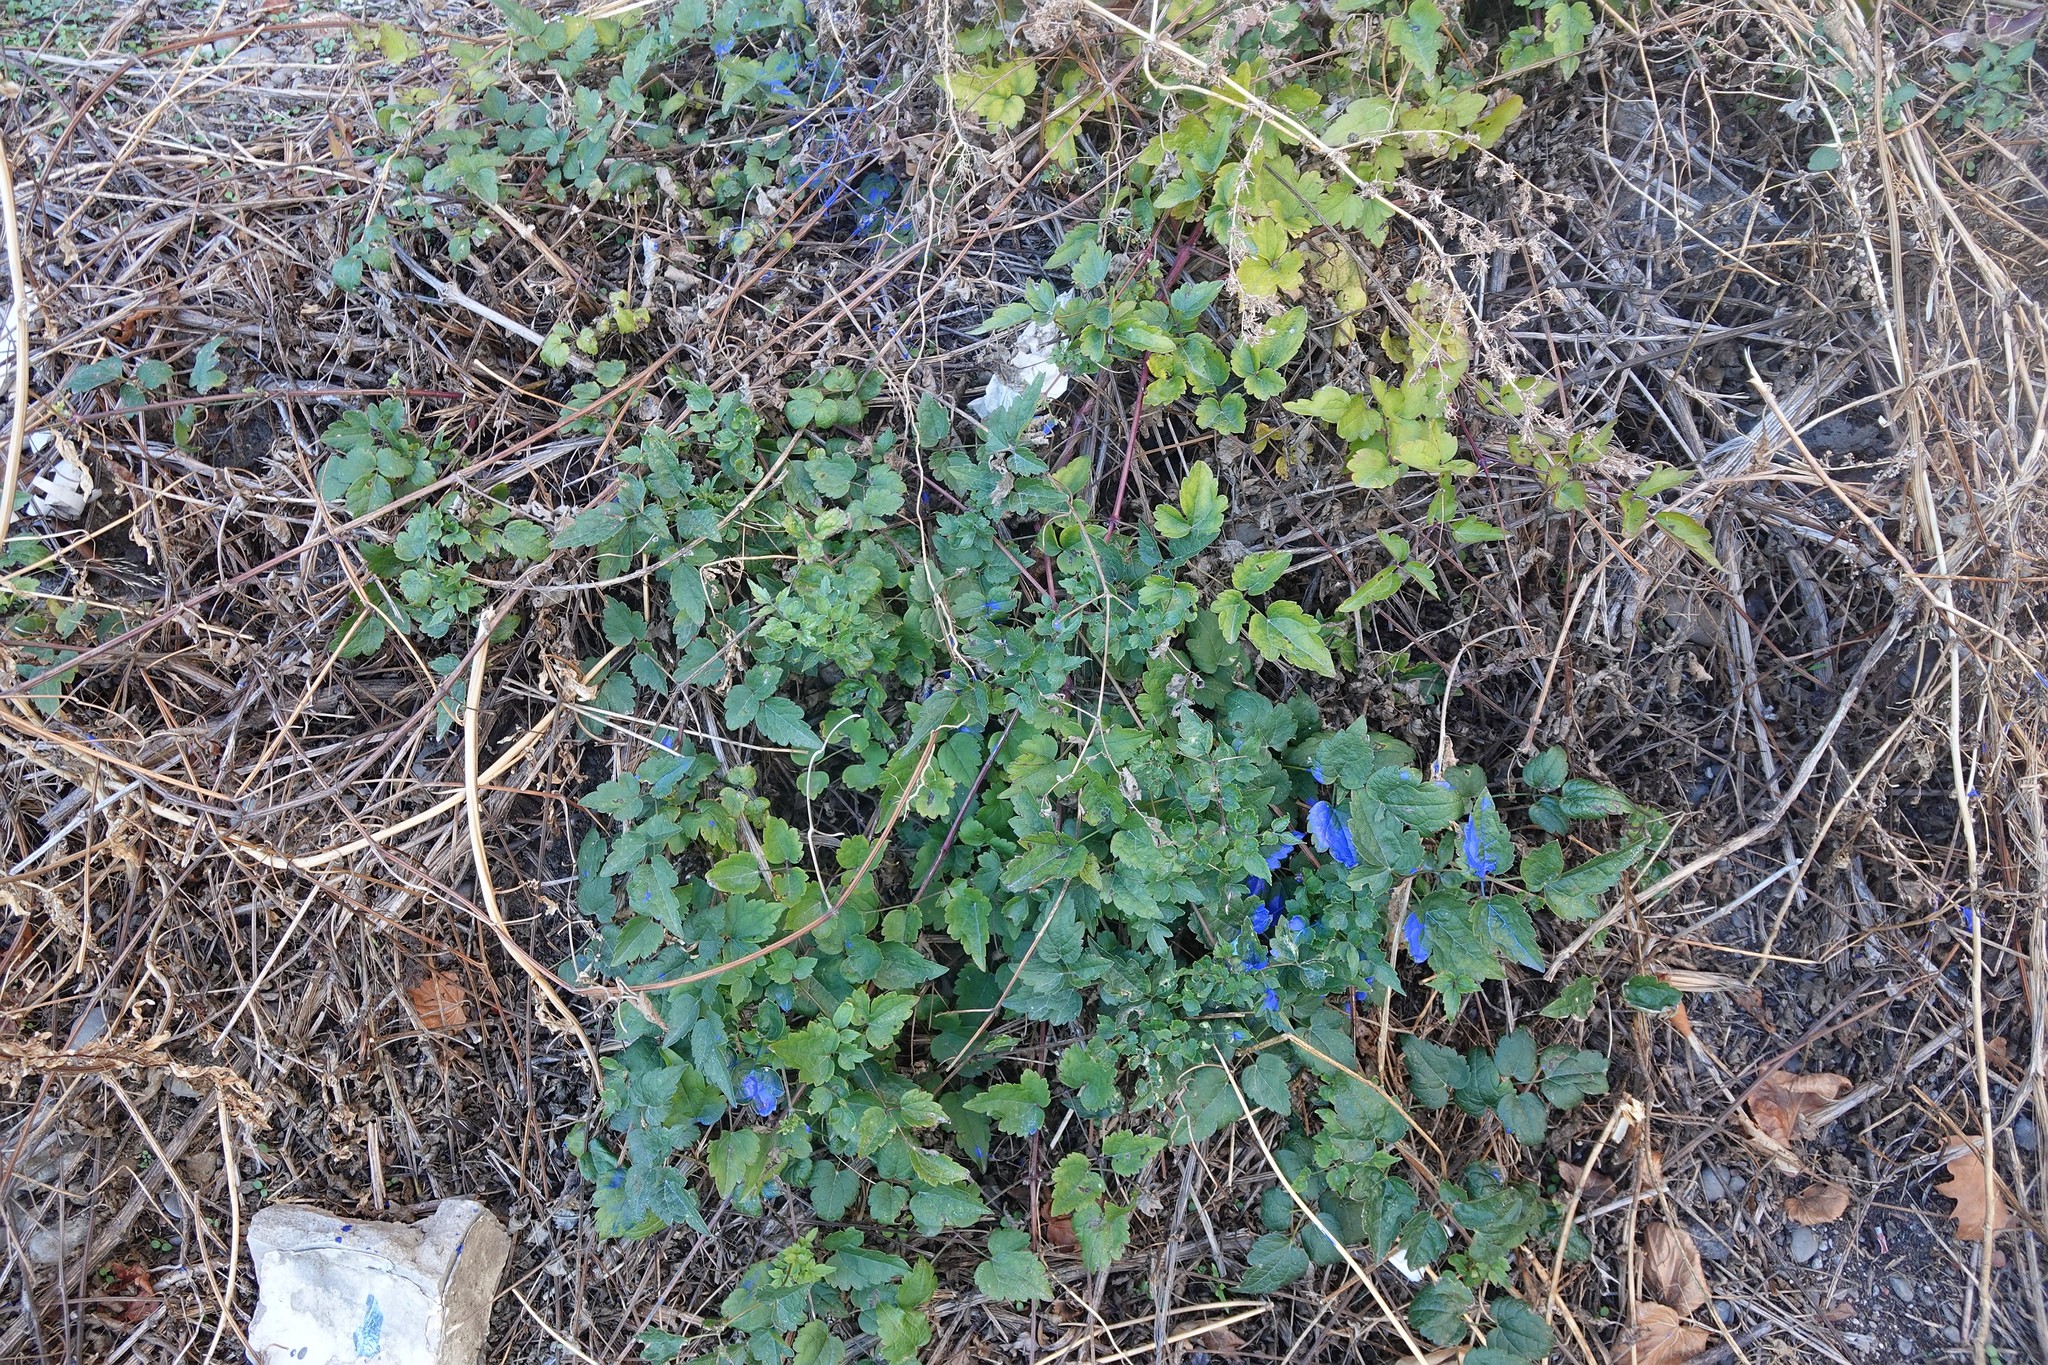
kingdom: Plantae
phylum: Tracheophyta
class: Magnoliopsida
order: Ranunculales
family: Ranunculaceae
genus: Clematis
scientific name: Clematis vitalba
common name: Evergreen clematis
